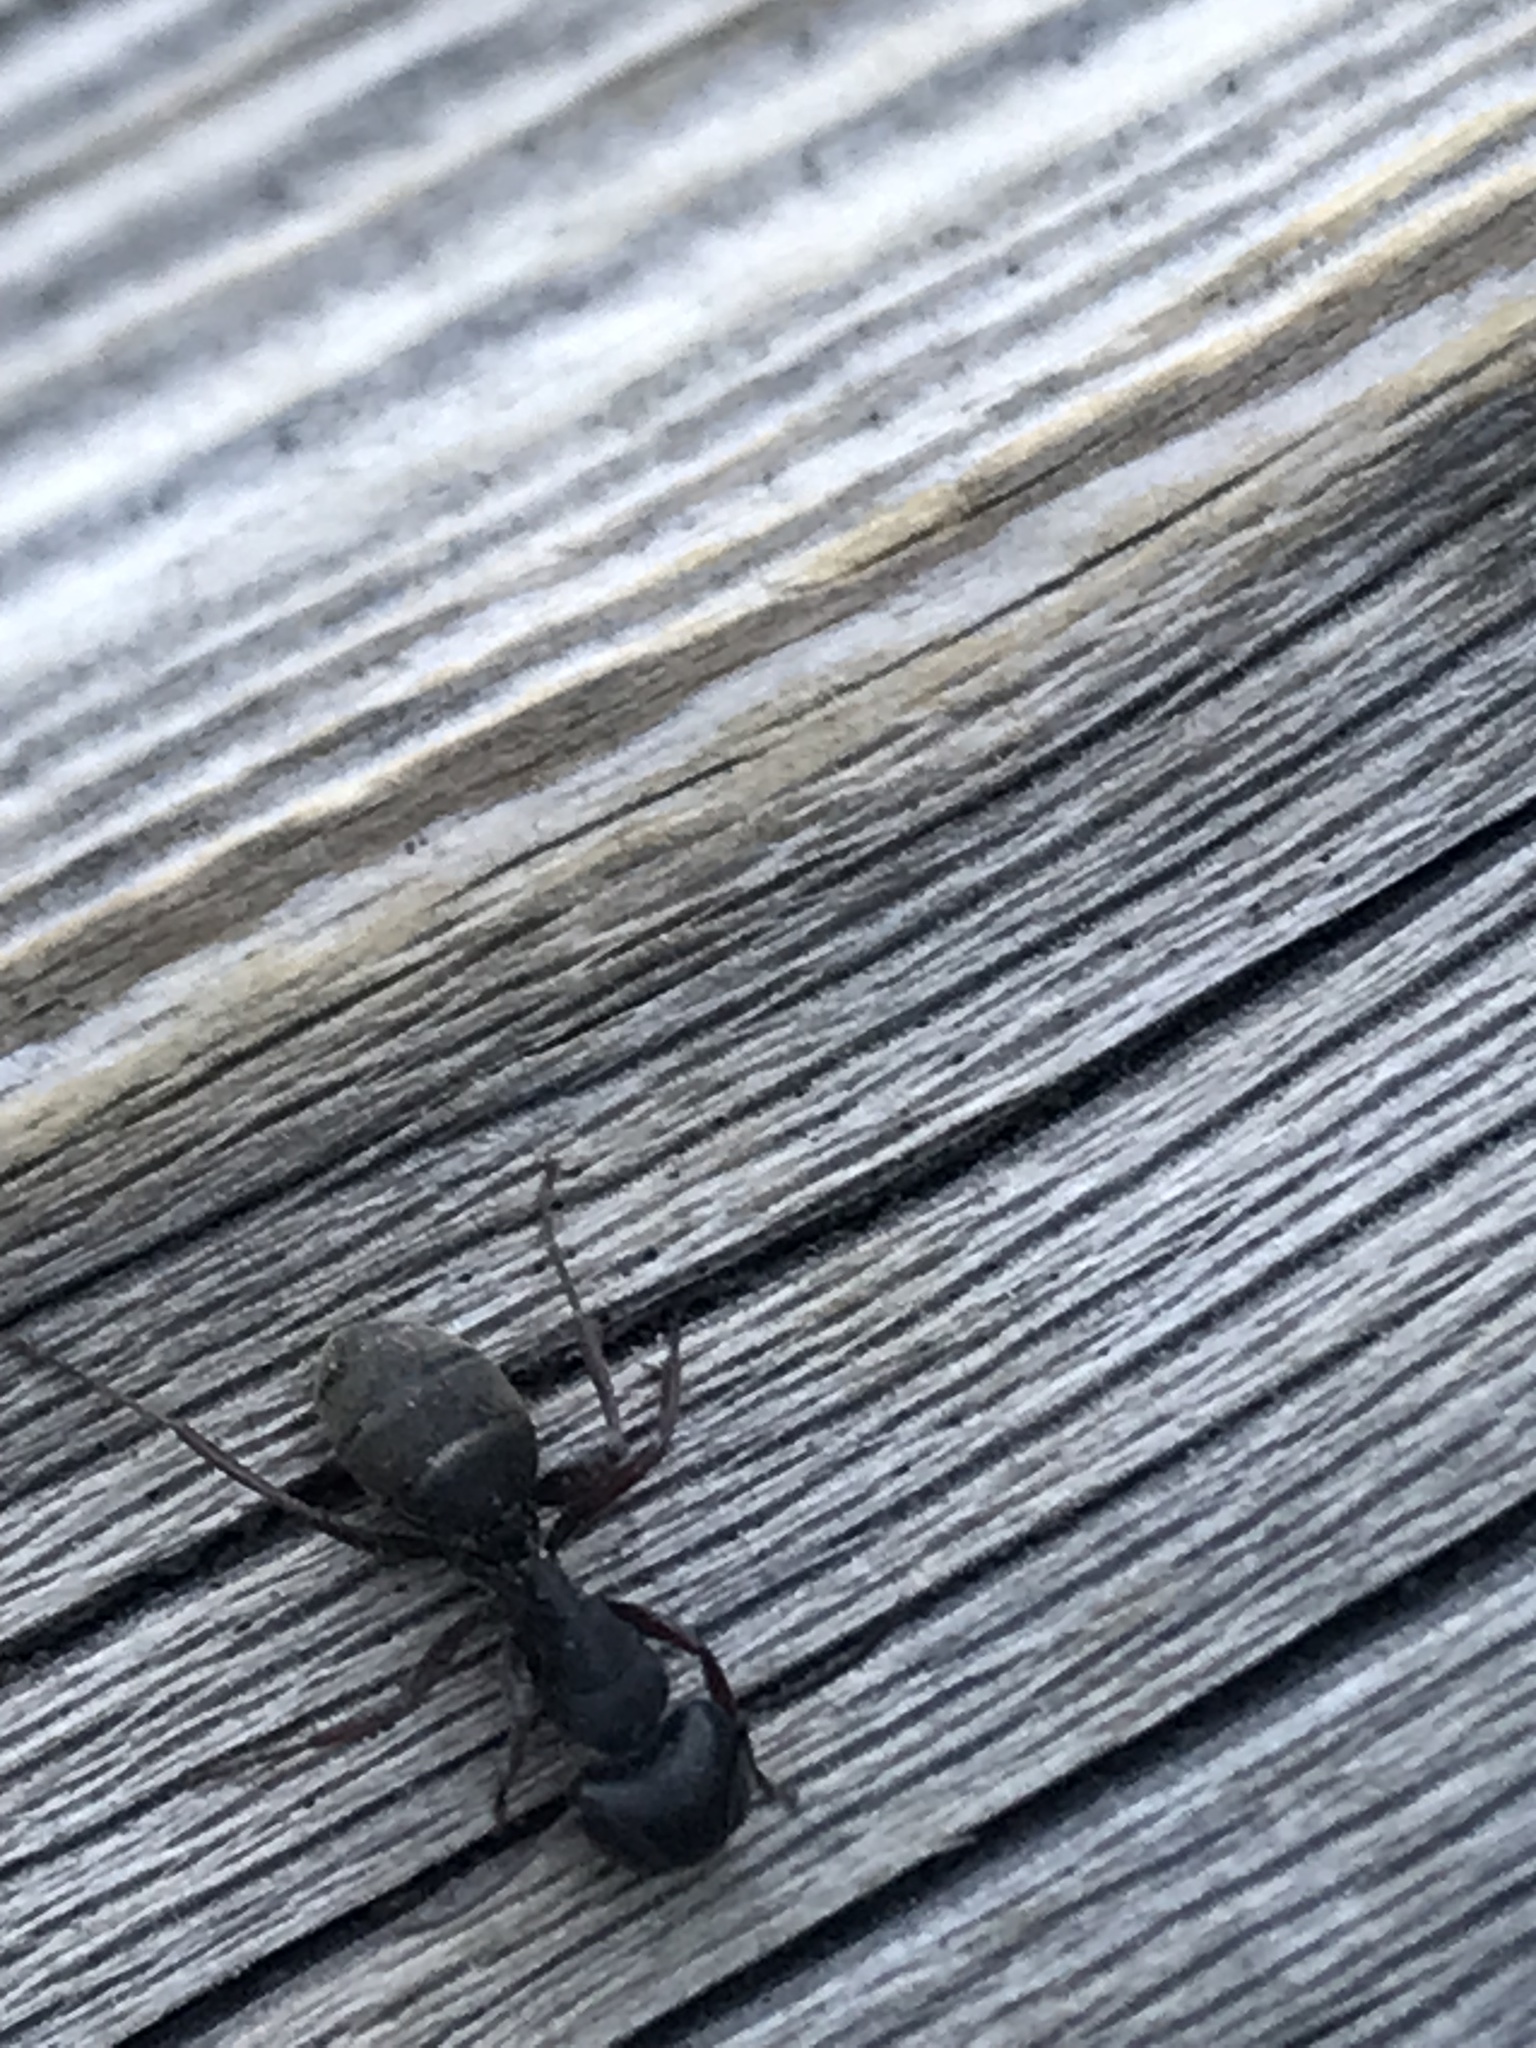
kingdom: Animalia
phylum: Arthropoda
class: Insecta
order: Hymenoptera
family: Formicidae
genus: Camponotus
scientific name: Camponotus modoc
